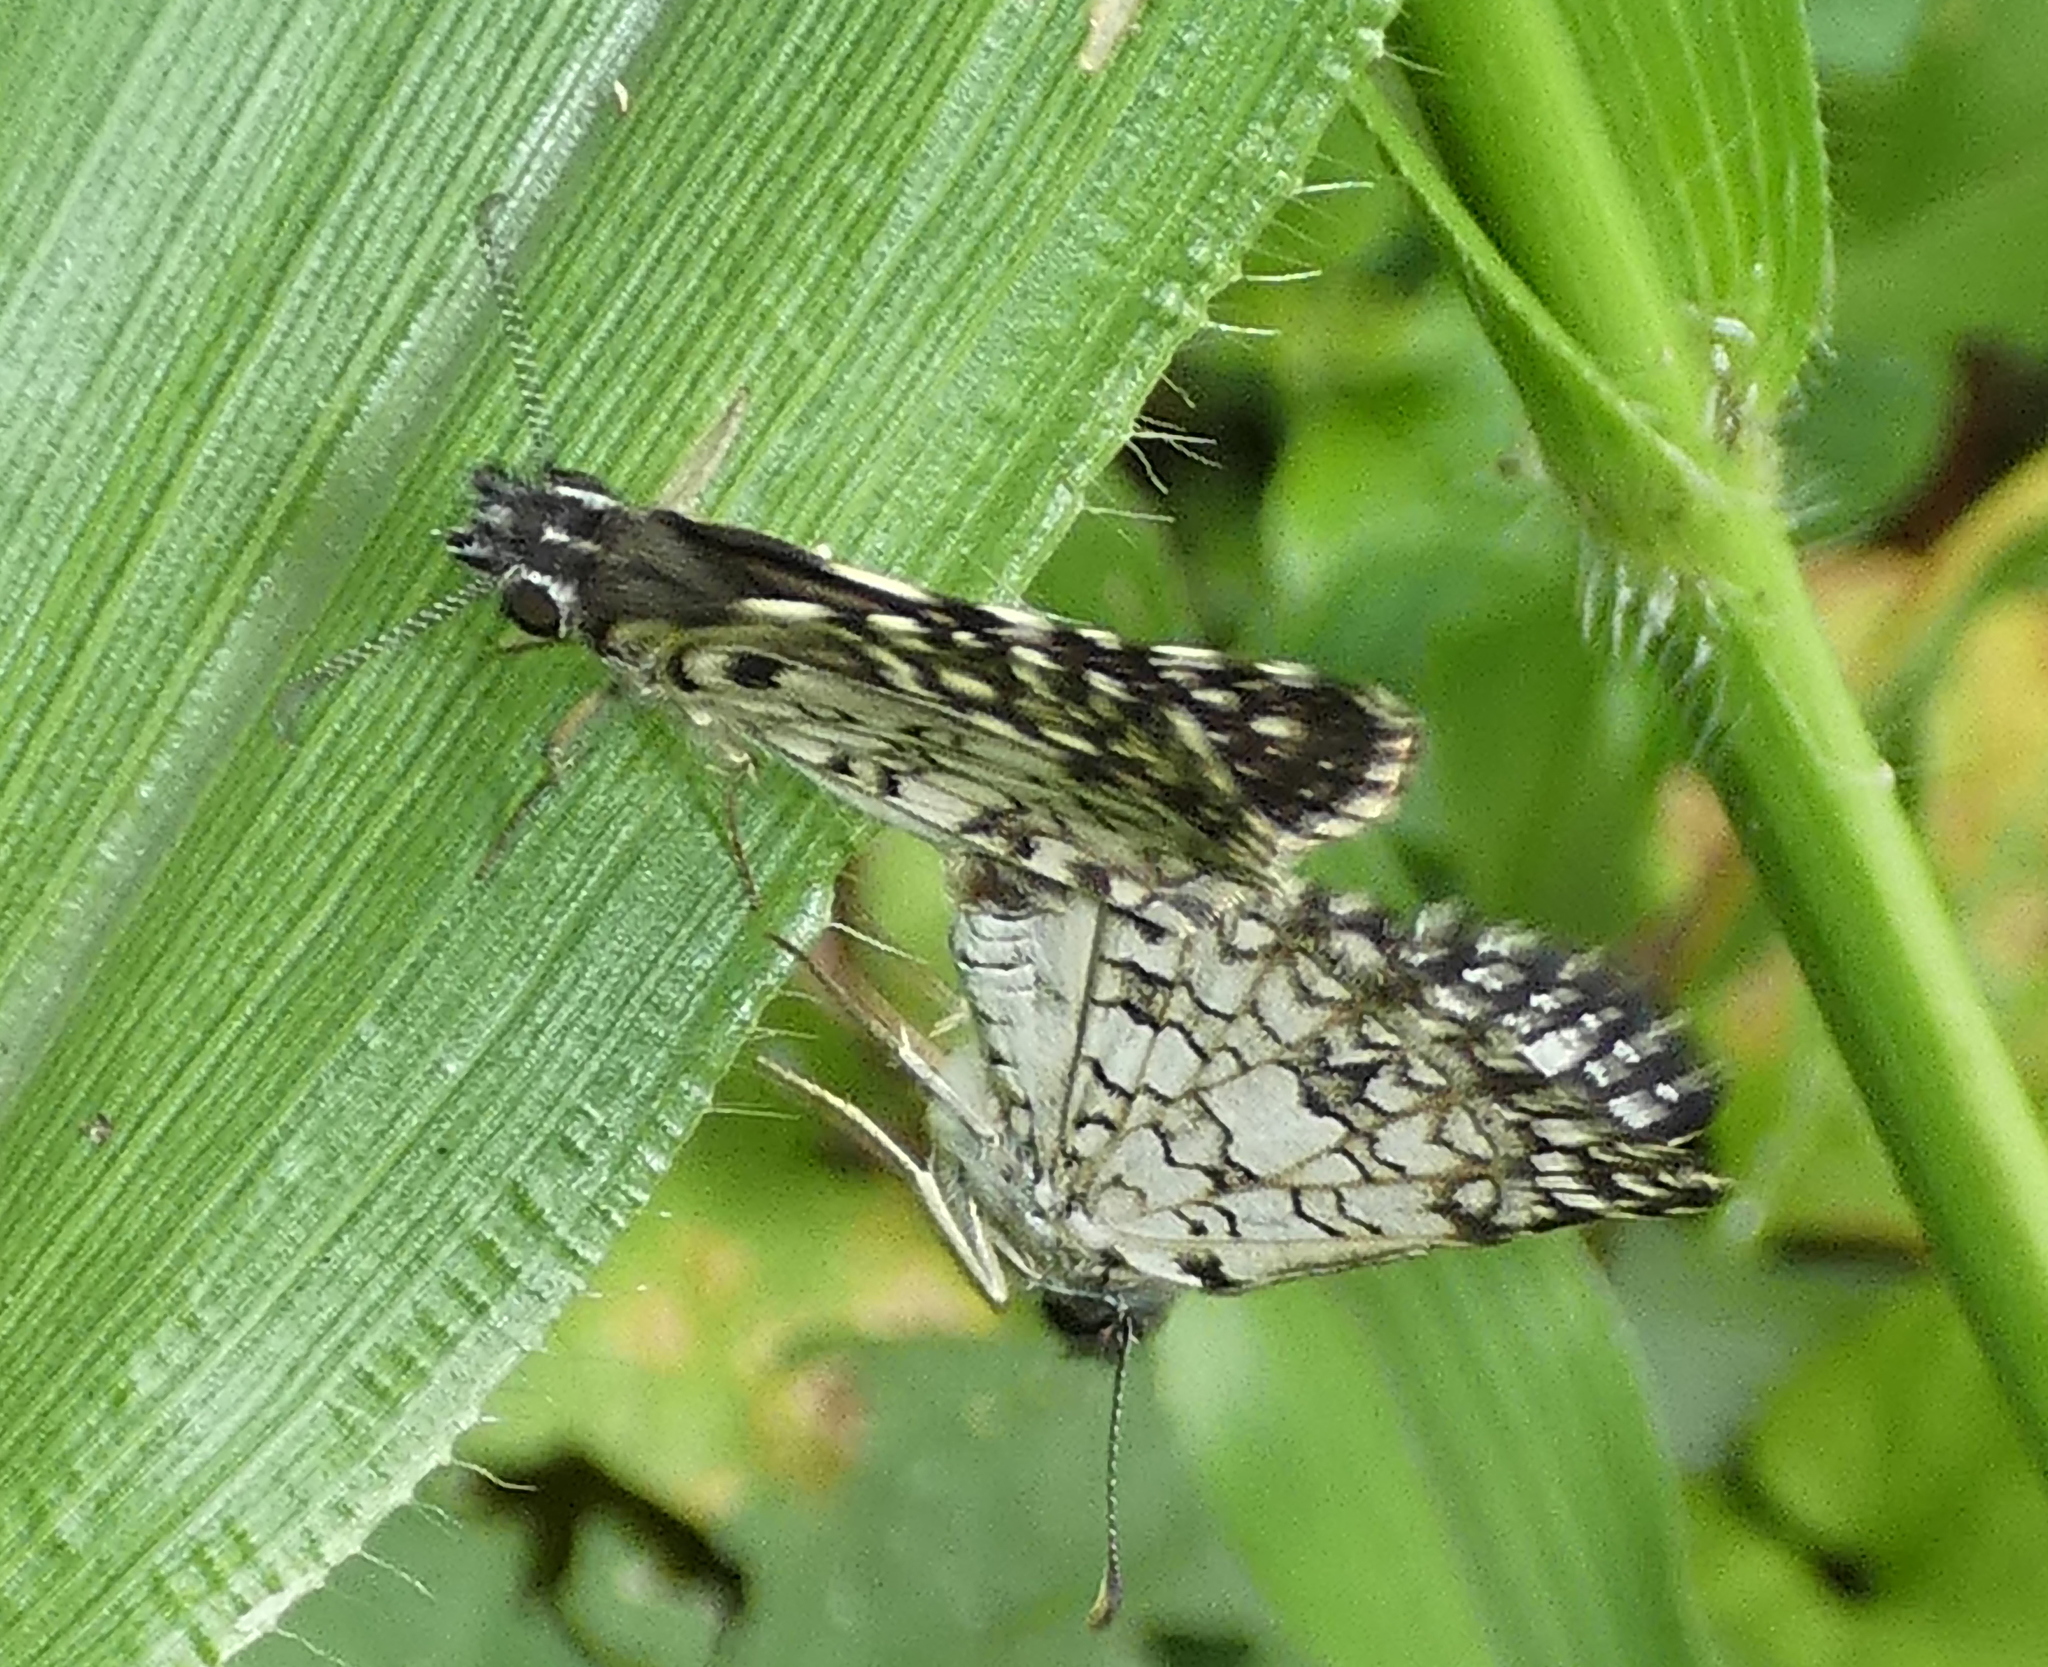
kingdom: Animalia
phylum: Arthropoda
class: Insecta
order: Lepidoptera
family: Hesperiidae
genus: Pyrgus
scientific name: Pyrgus oileus
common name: Tropical checkered-skipper
